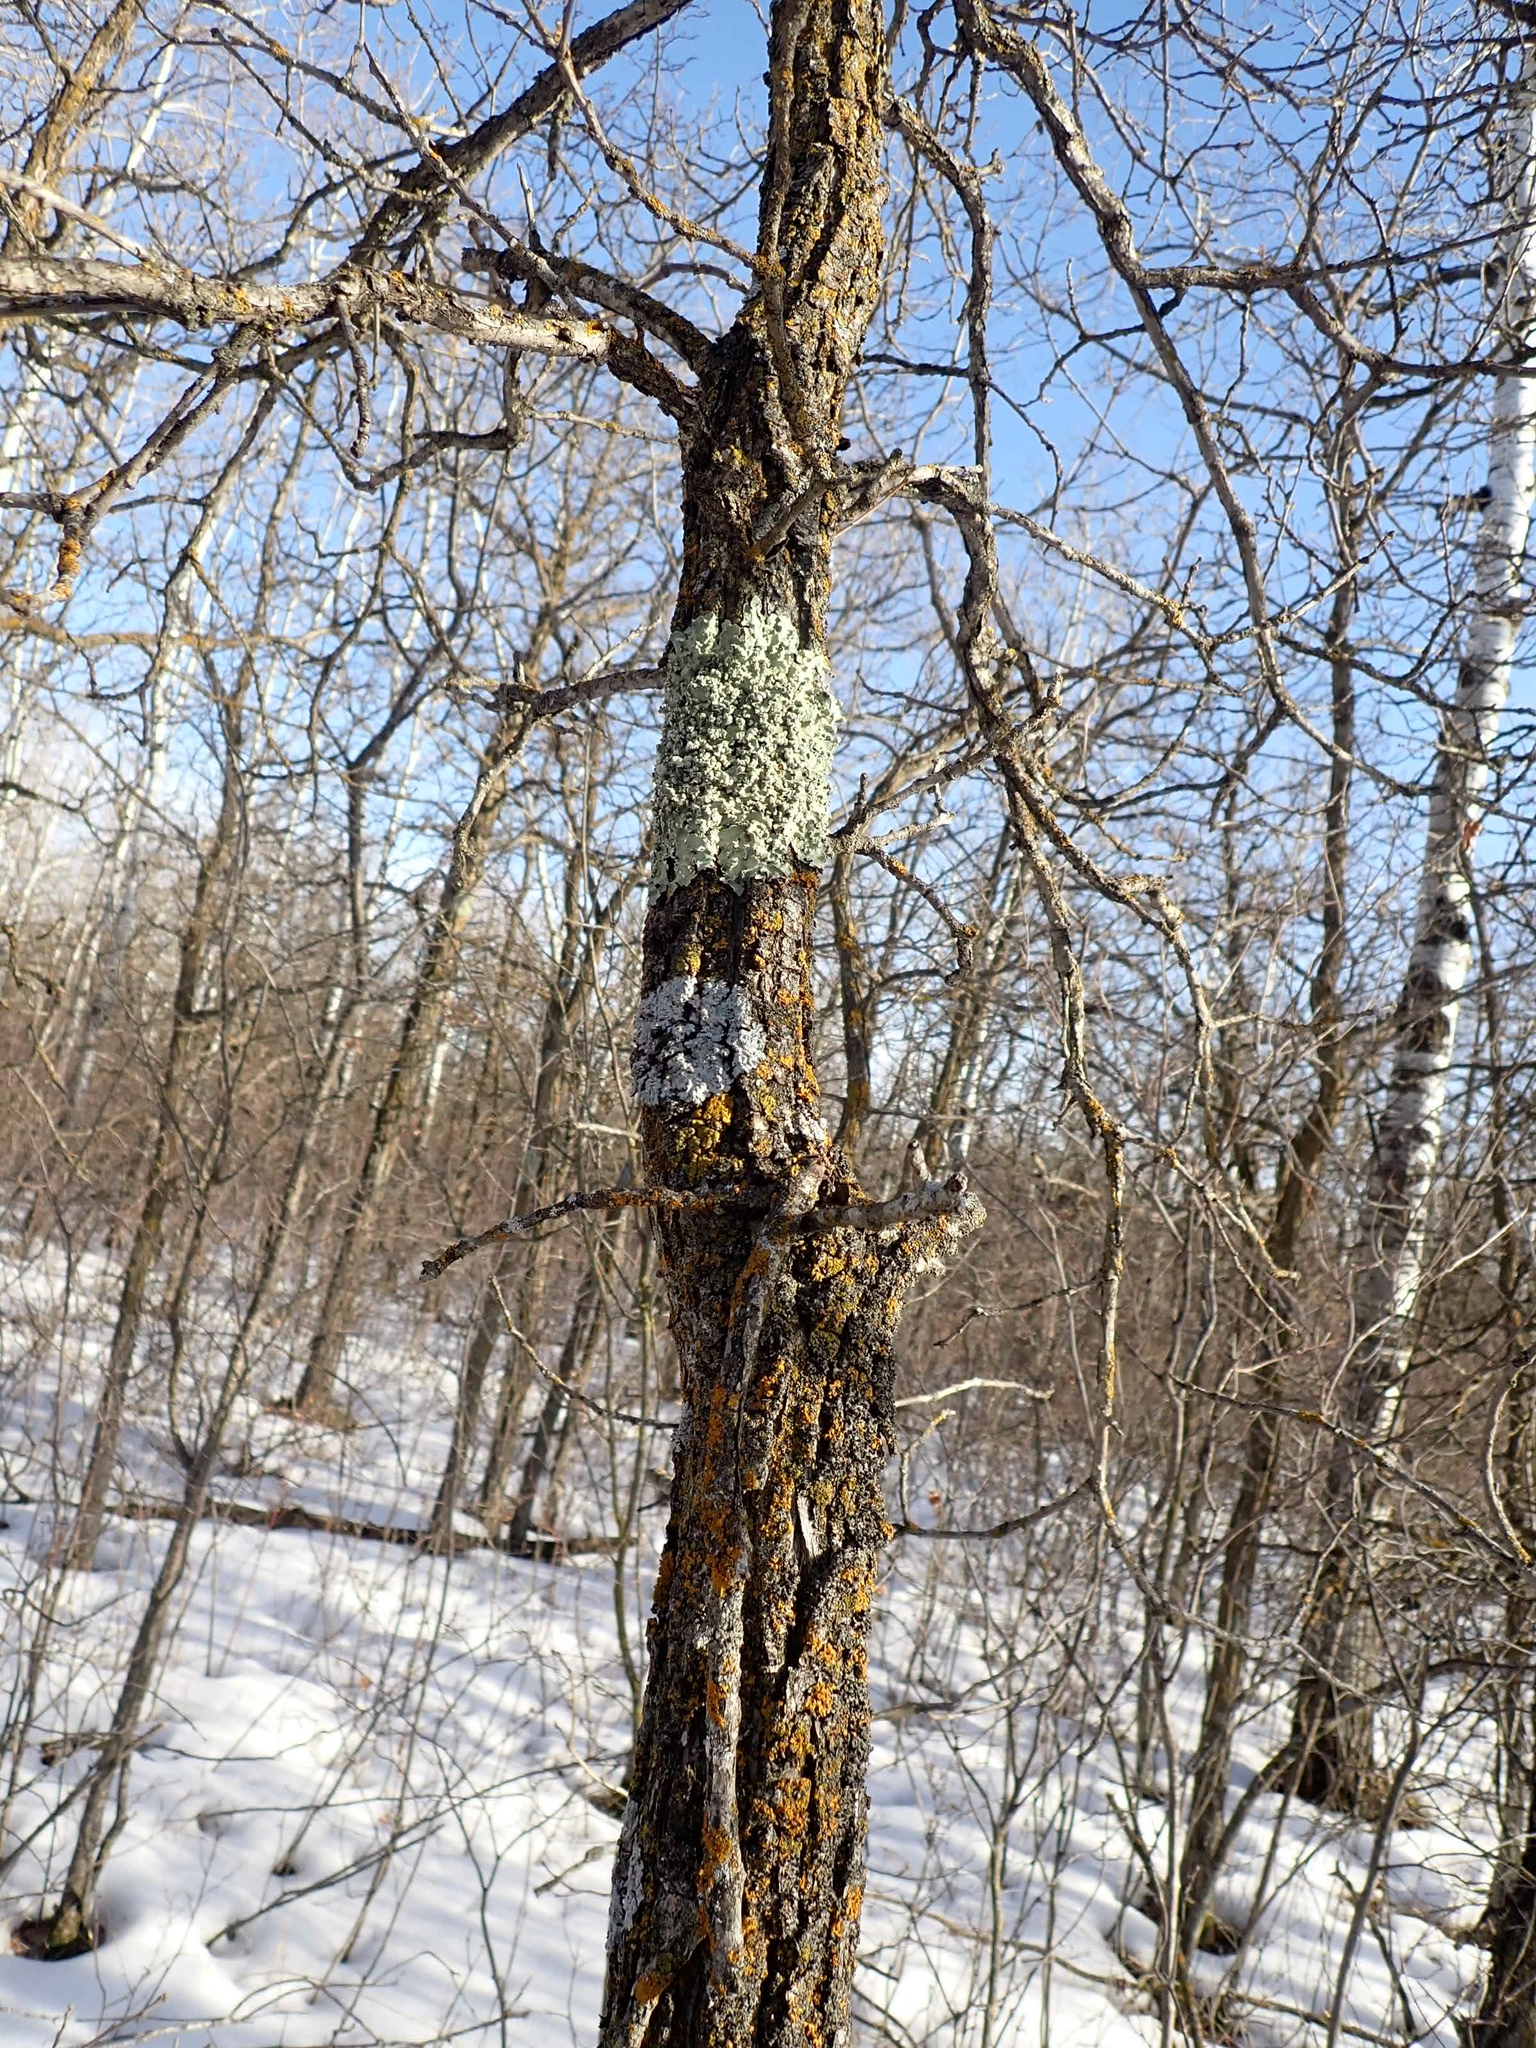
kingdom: Plantae
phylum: Tracheophyta
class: Magnoliopsida
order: Fagales
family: Fagaceae
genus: Quercus
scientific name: Quercus macrocarpa
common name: Bur oak
